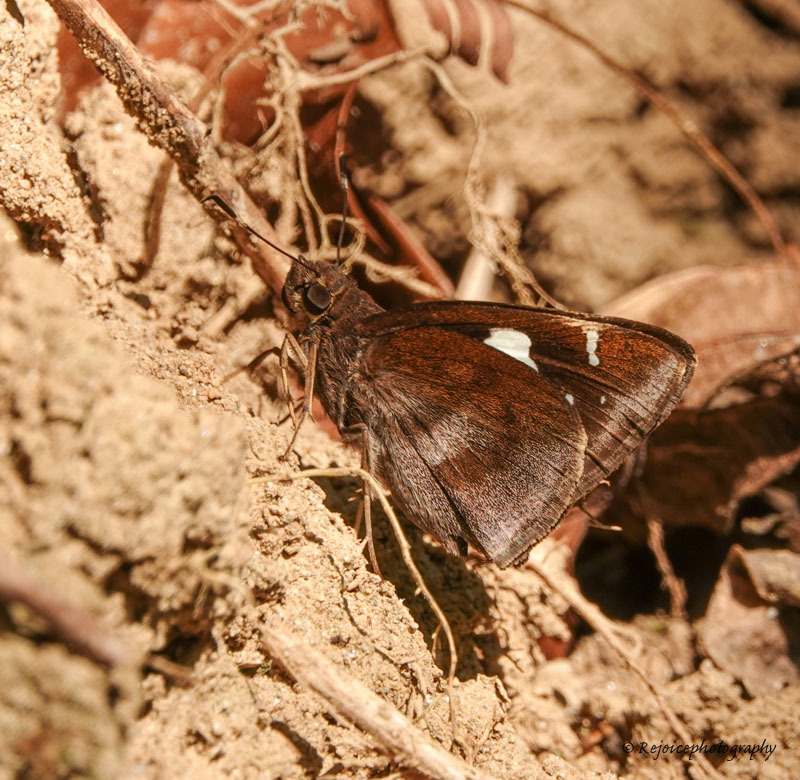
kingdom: Animalia
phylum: Arthropoda
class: Insecta
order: Lepidoptera
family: Hesperiidae
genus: Notocrypta
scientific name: Notocrypta paralysos
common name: Common banded demon
